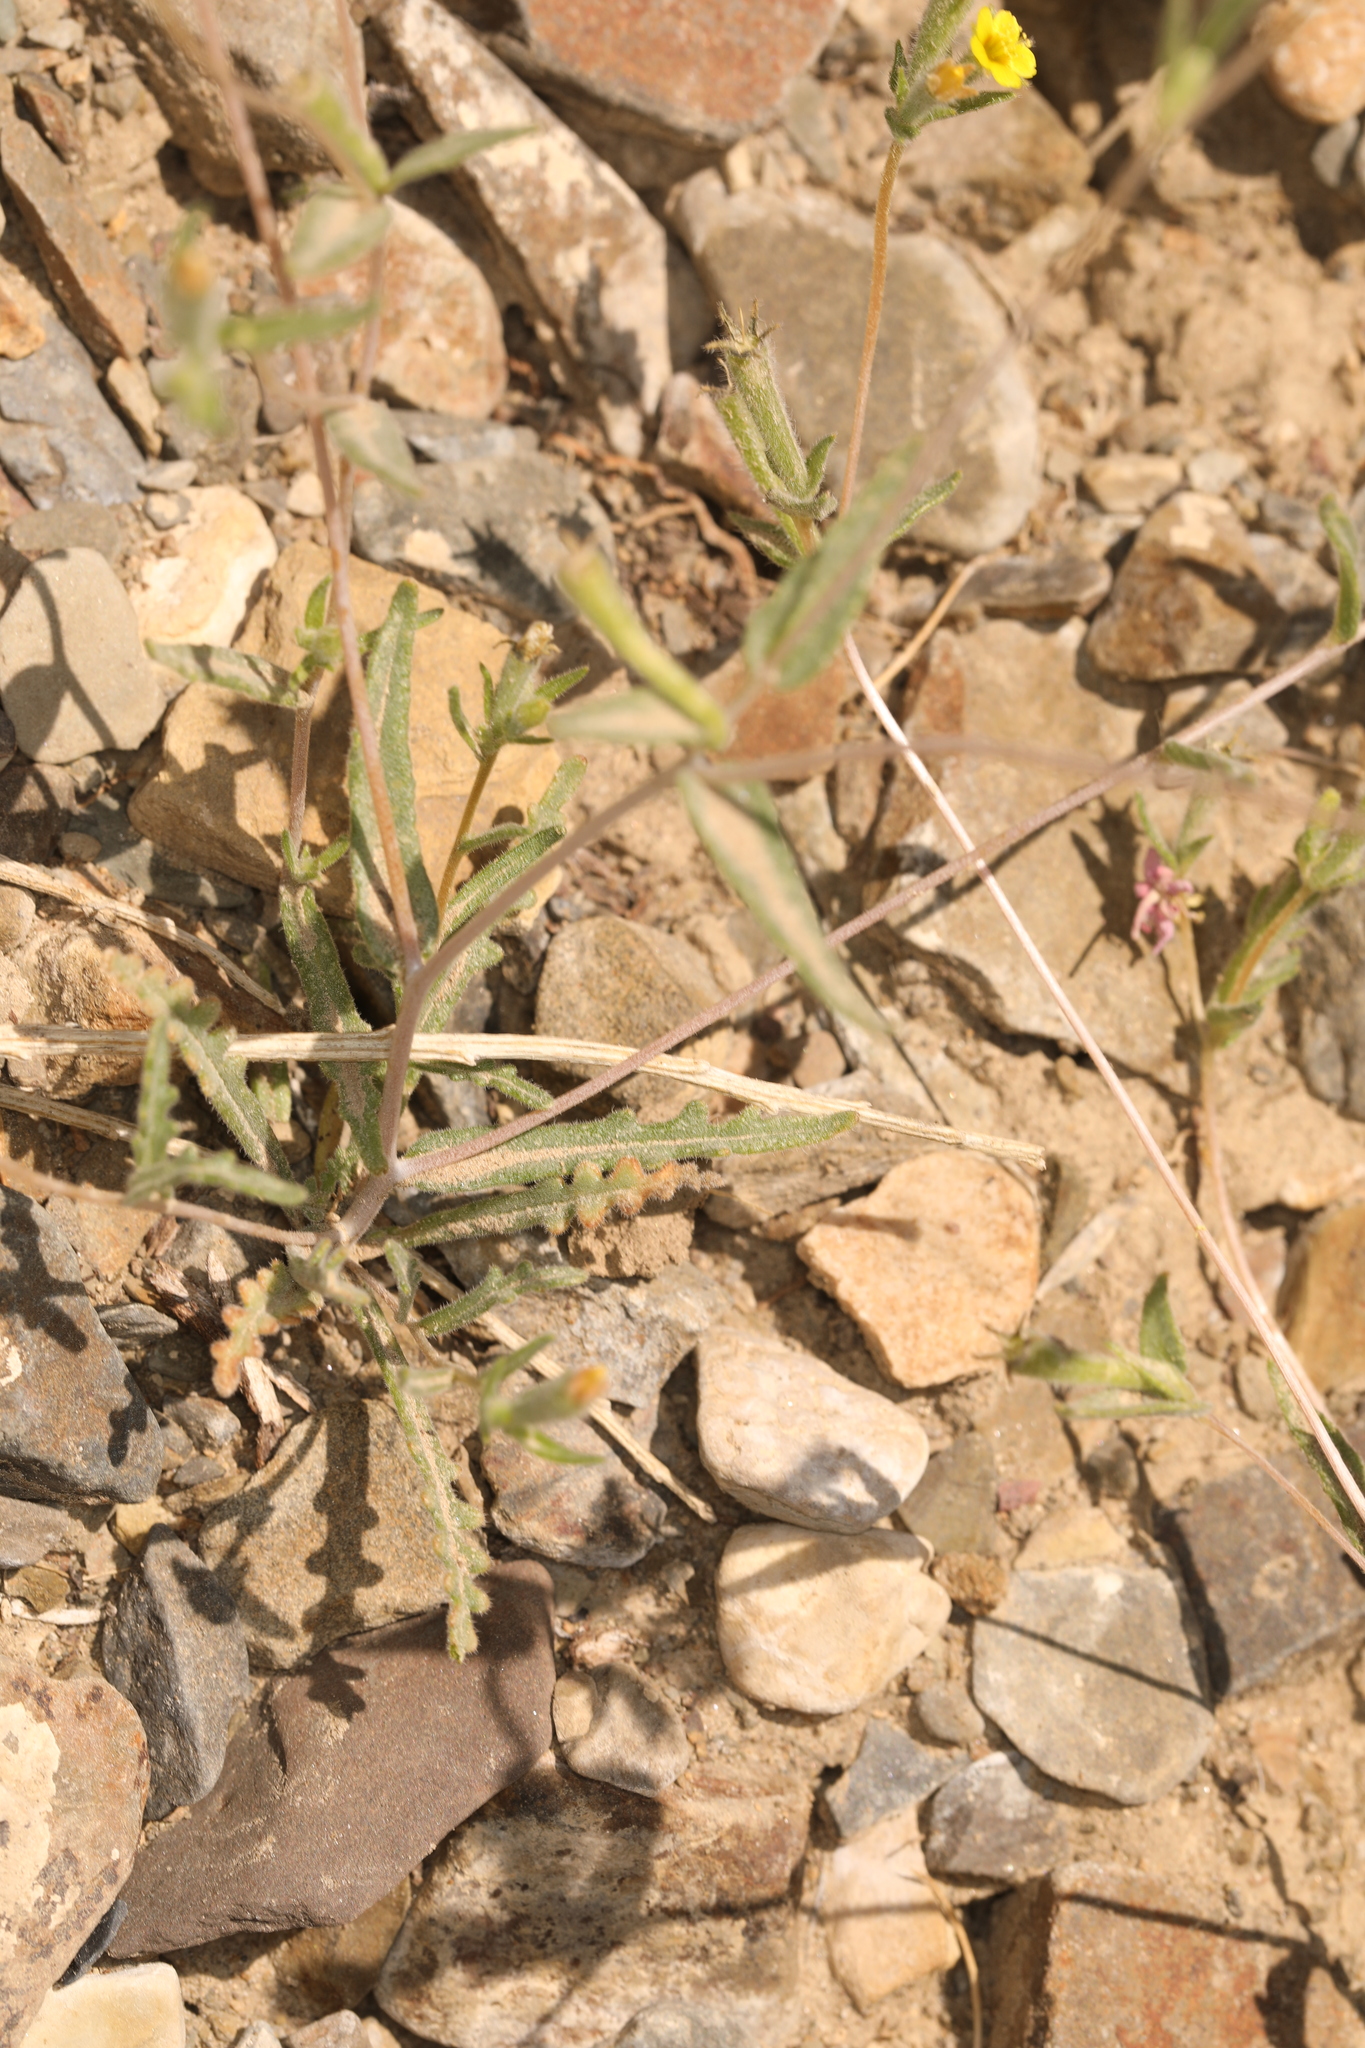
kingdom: Plantae
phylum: Tracheophyta
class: Magnoliopsida
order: Cornales
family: Loasaceae
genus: Mentzelia
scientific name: Mentzelia montana
